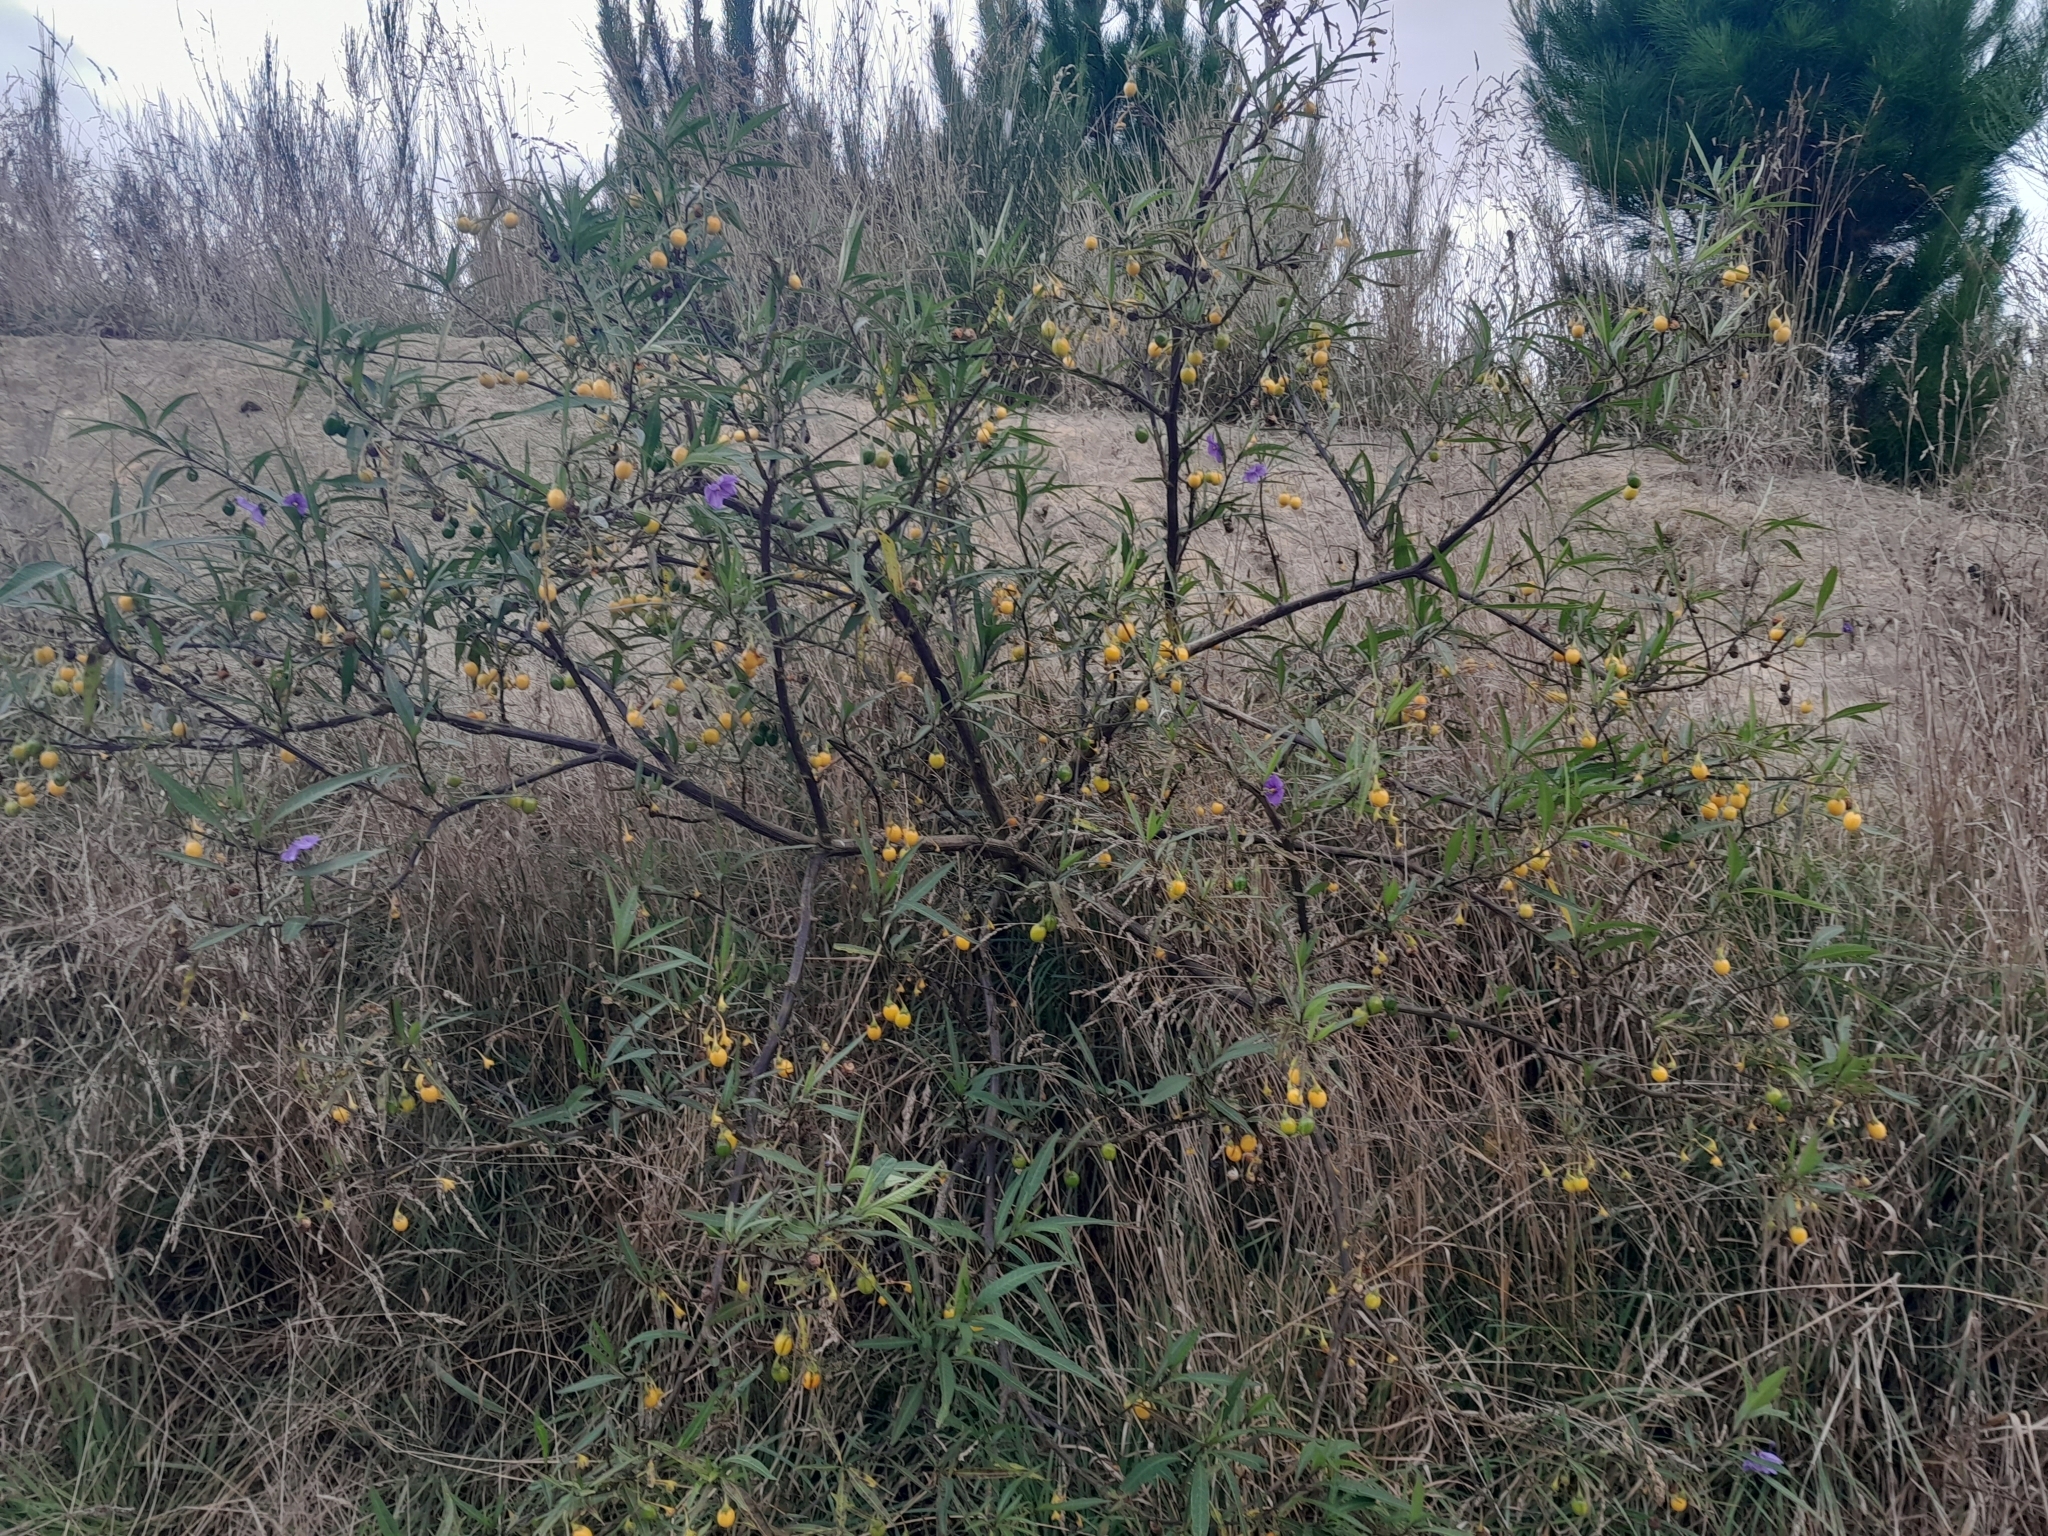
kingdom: Plantae
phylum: Tracheophyta
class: Magnoliopsida
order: Solanales
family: Solanaceae
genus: Solanum
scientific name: Solanum laciniatum
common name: Kangaroo-apple
